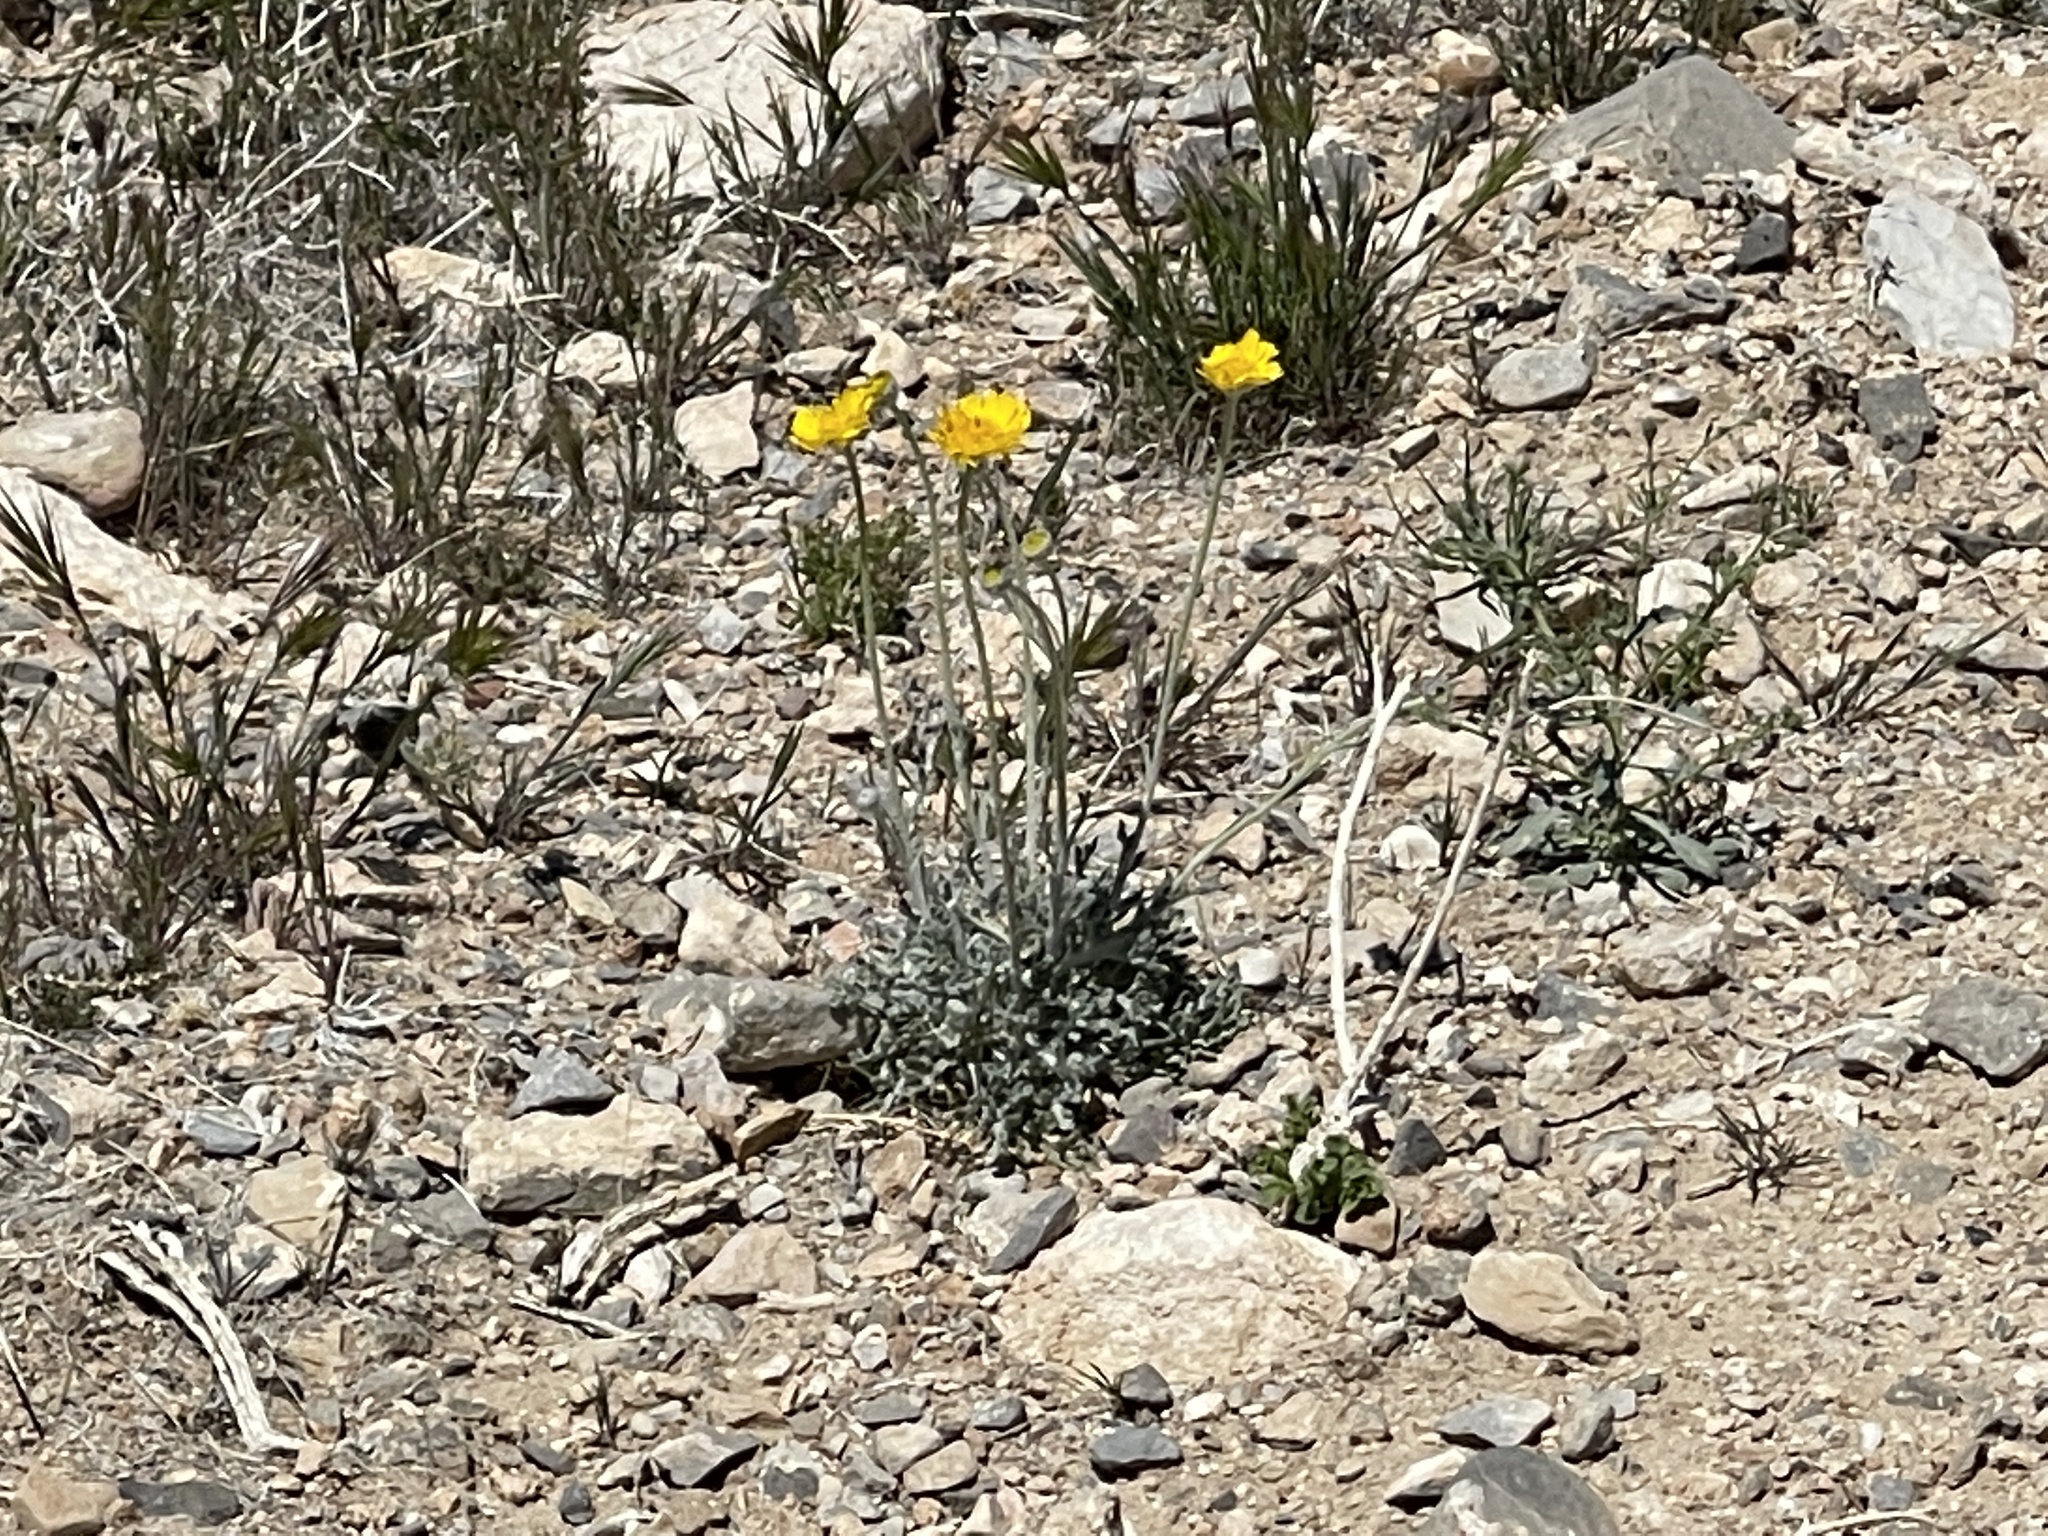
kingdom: Plantae
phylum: Tracheophyta
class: Magnoliopsida
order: Asterales
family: Asteraceae
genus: Baileya
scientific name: Baileya multiradiata
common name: Desert-marigold
